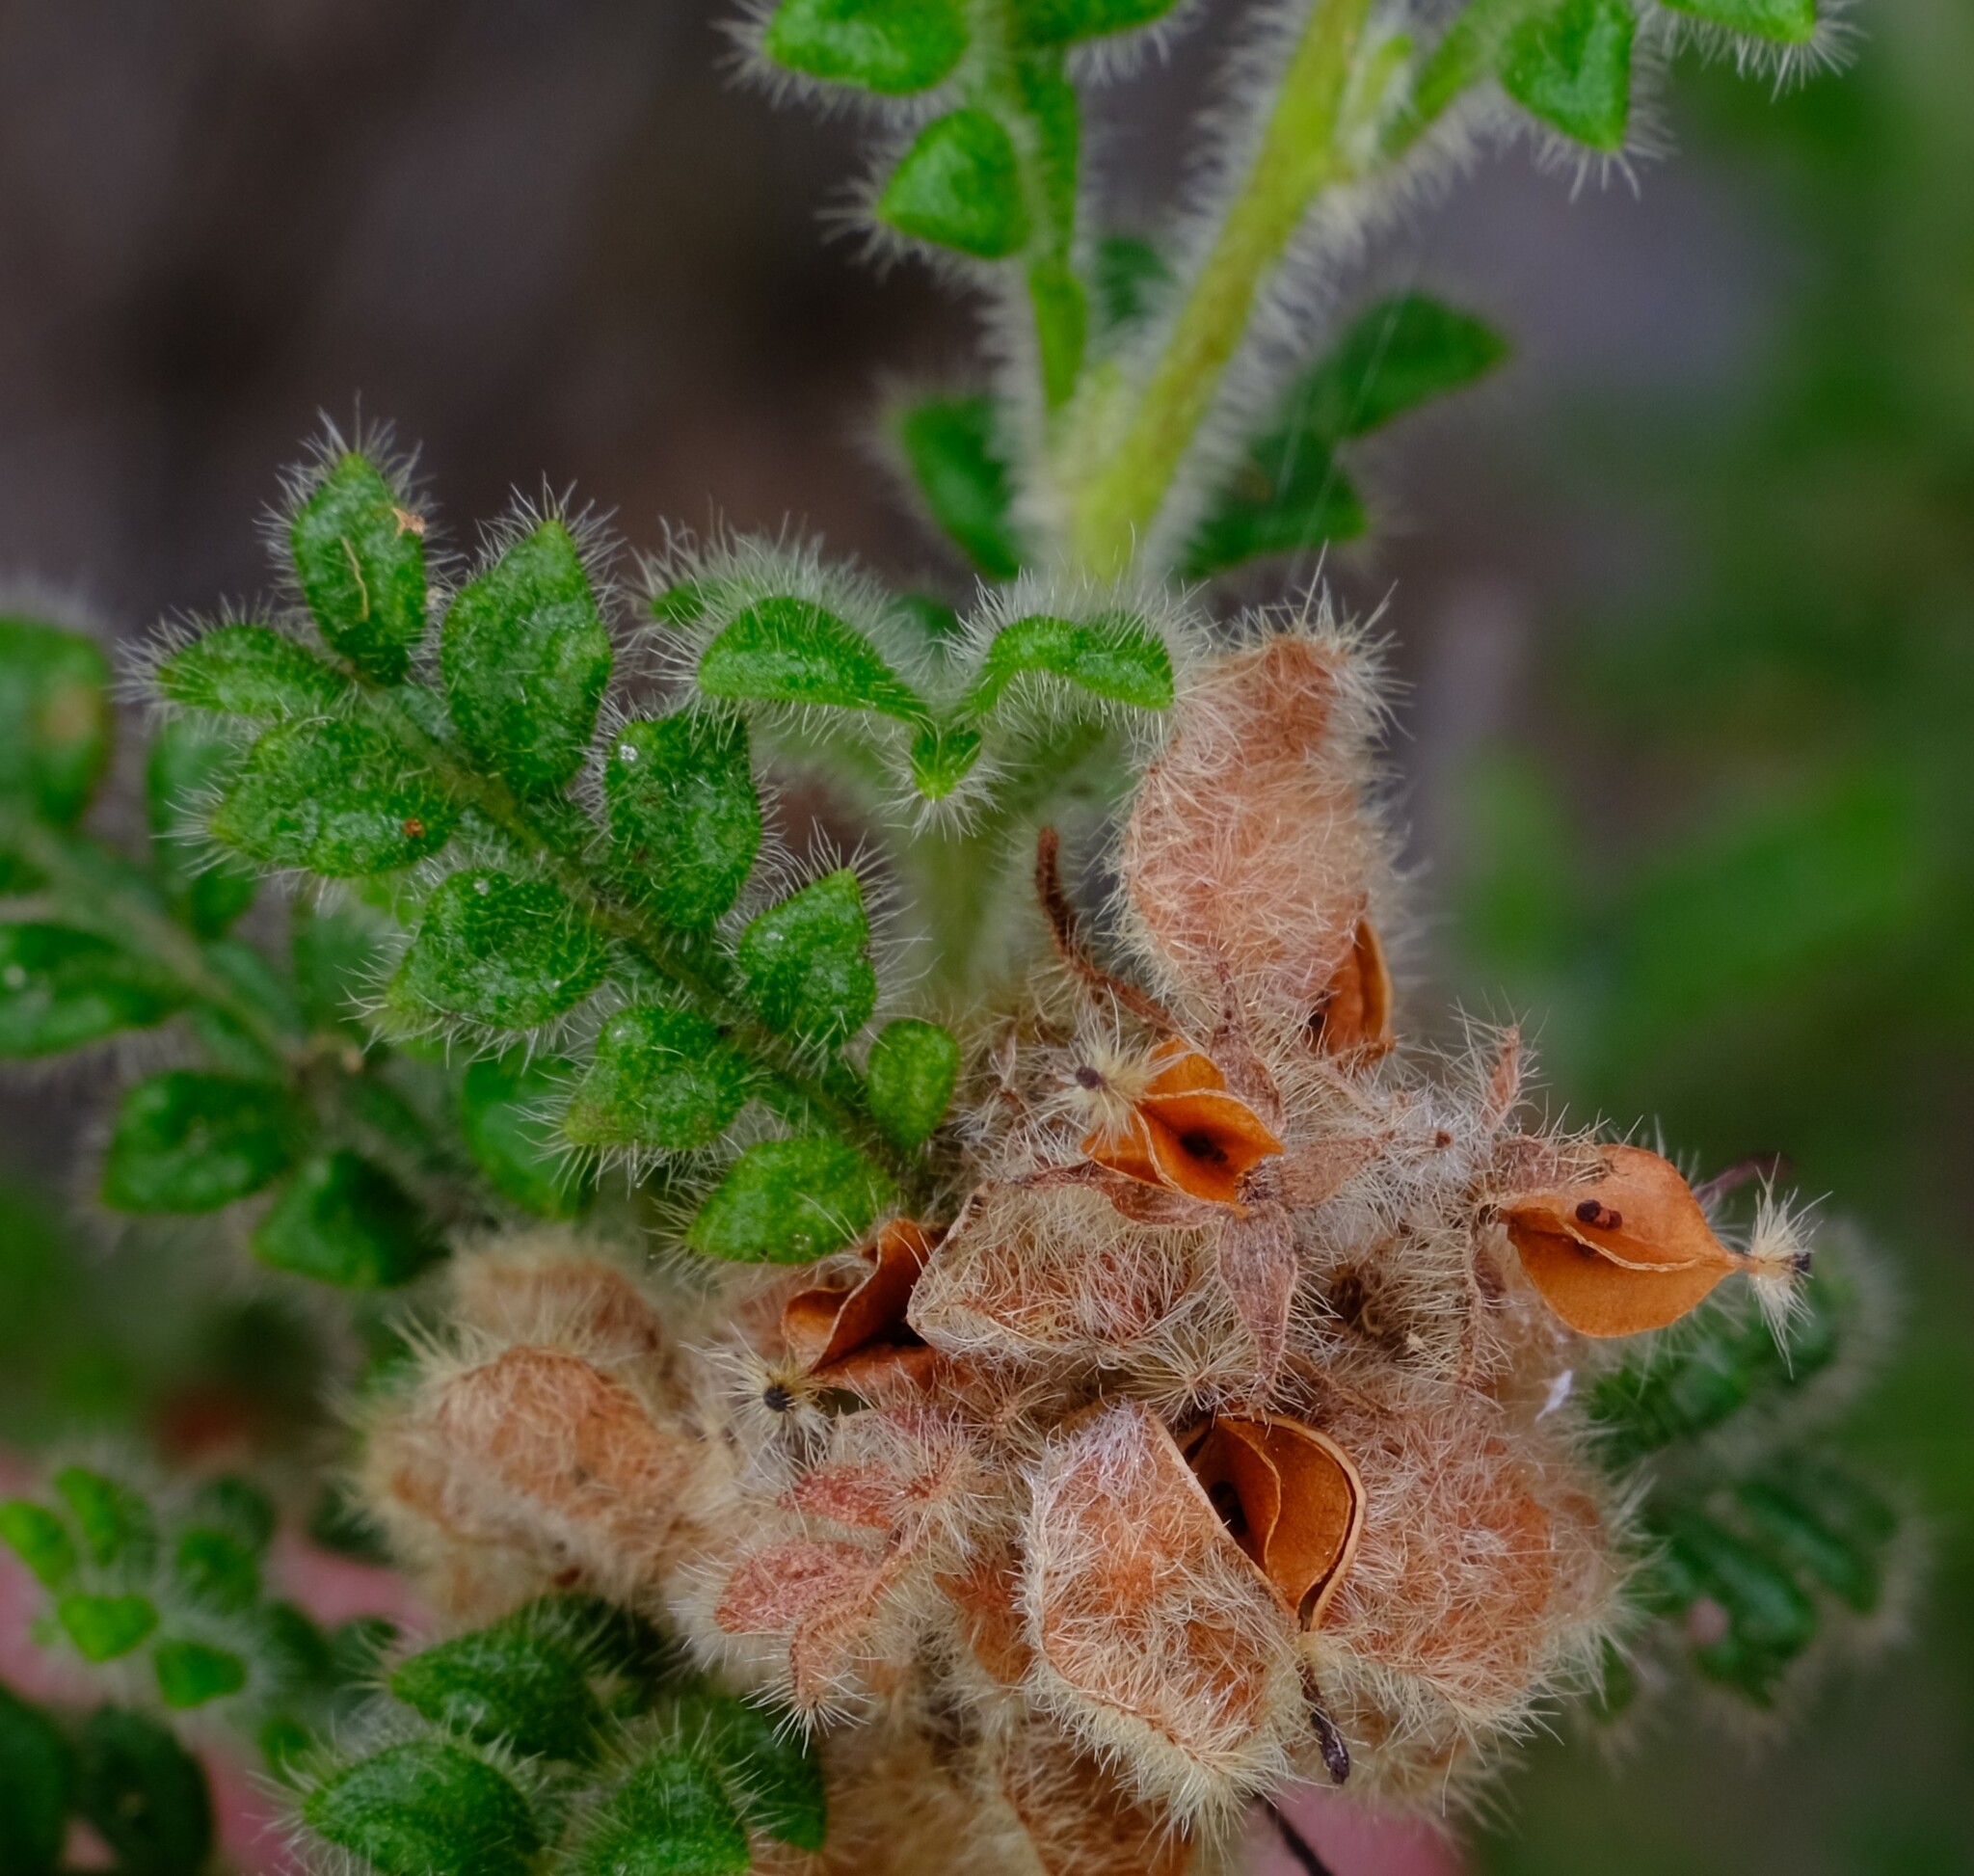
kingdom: Plantae
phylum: Tracheophyta
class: Magnoliopsida
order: Sapindales
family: Sapindaceae
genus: Dodonaea
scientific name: Dodonaea rupicola
